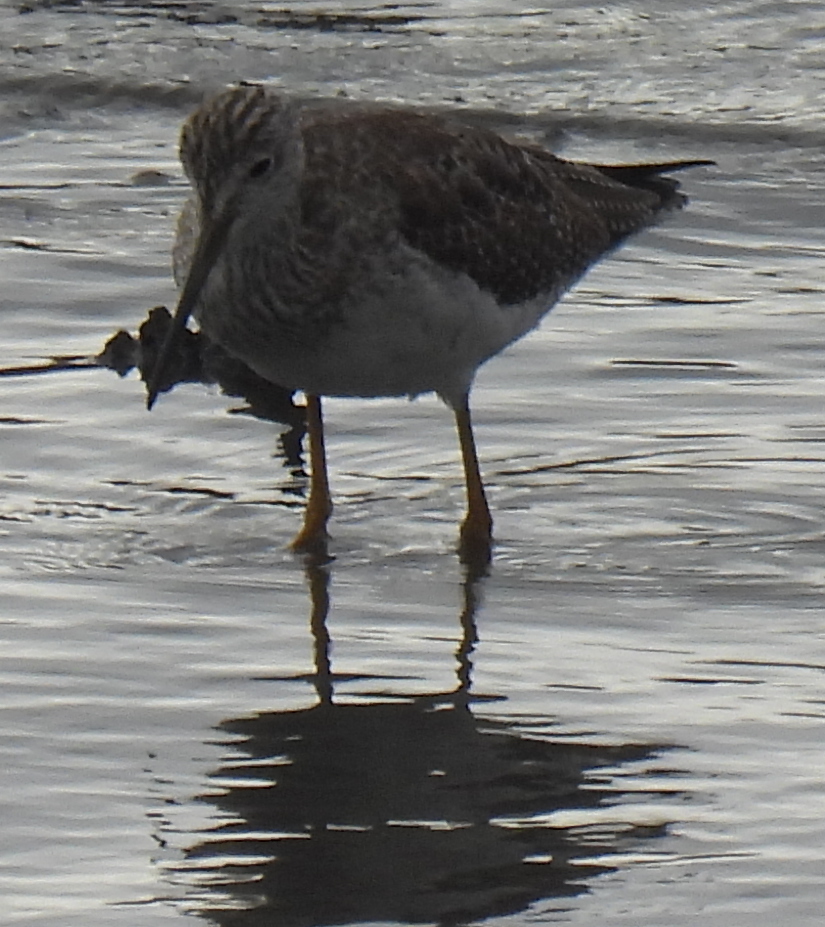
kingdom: Animalia
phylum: Chordata
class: Aves
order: Charadriiformes
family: Scolopacidae
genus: Tringa
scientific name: Tringa melanoleuca
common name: Greater yellowlegs
